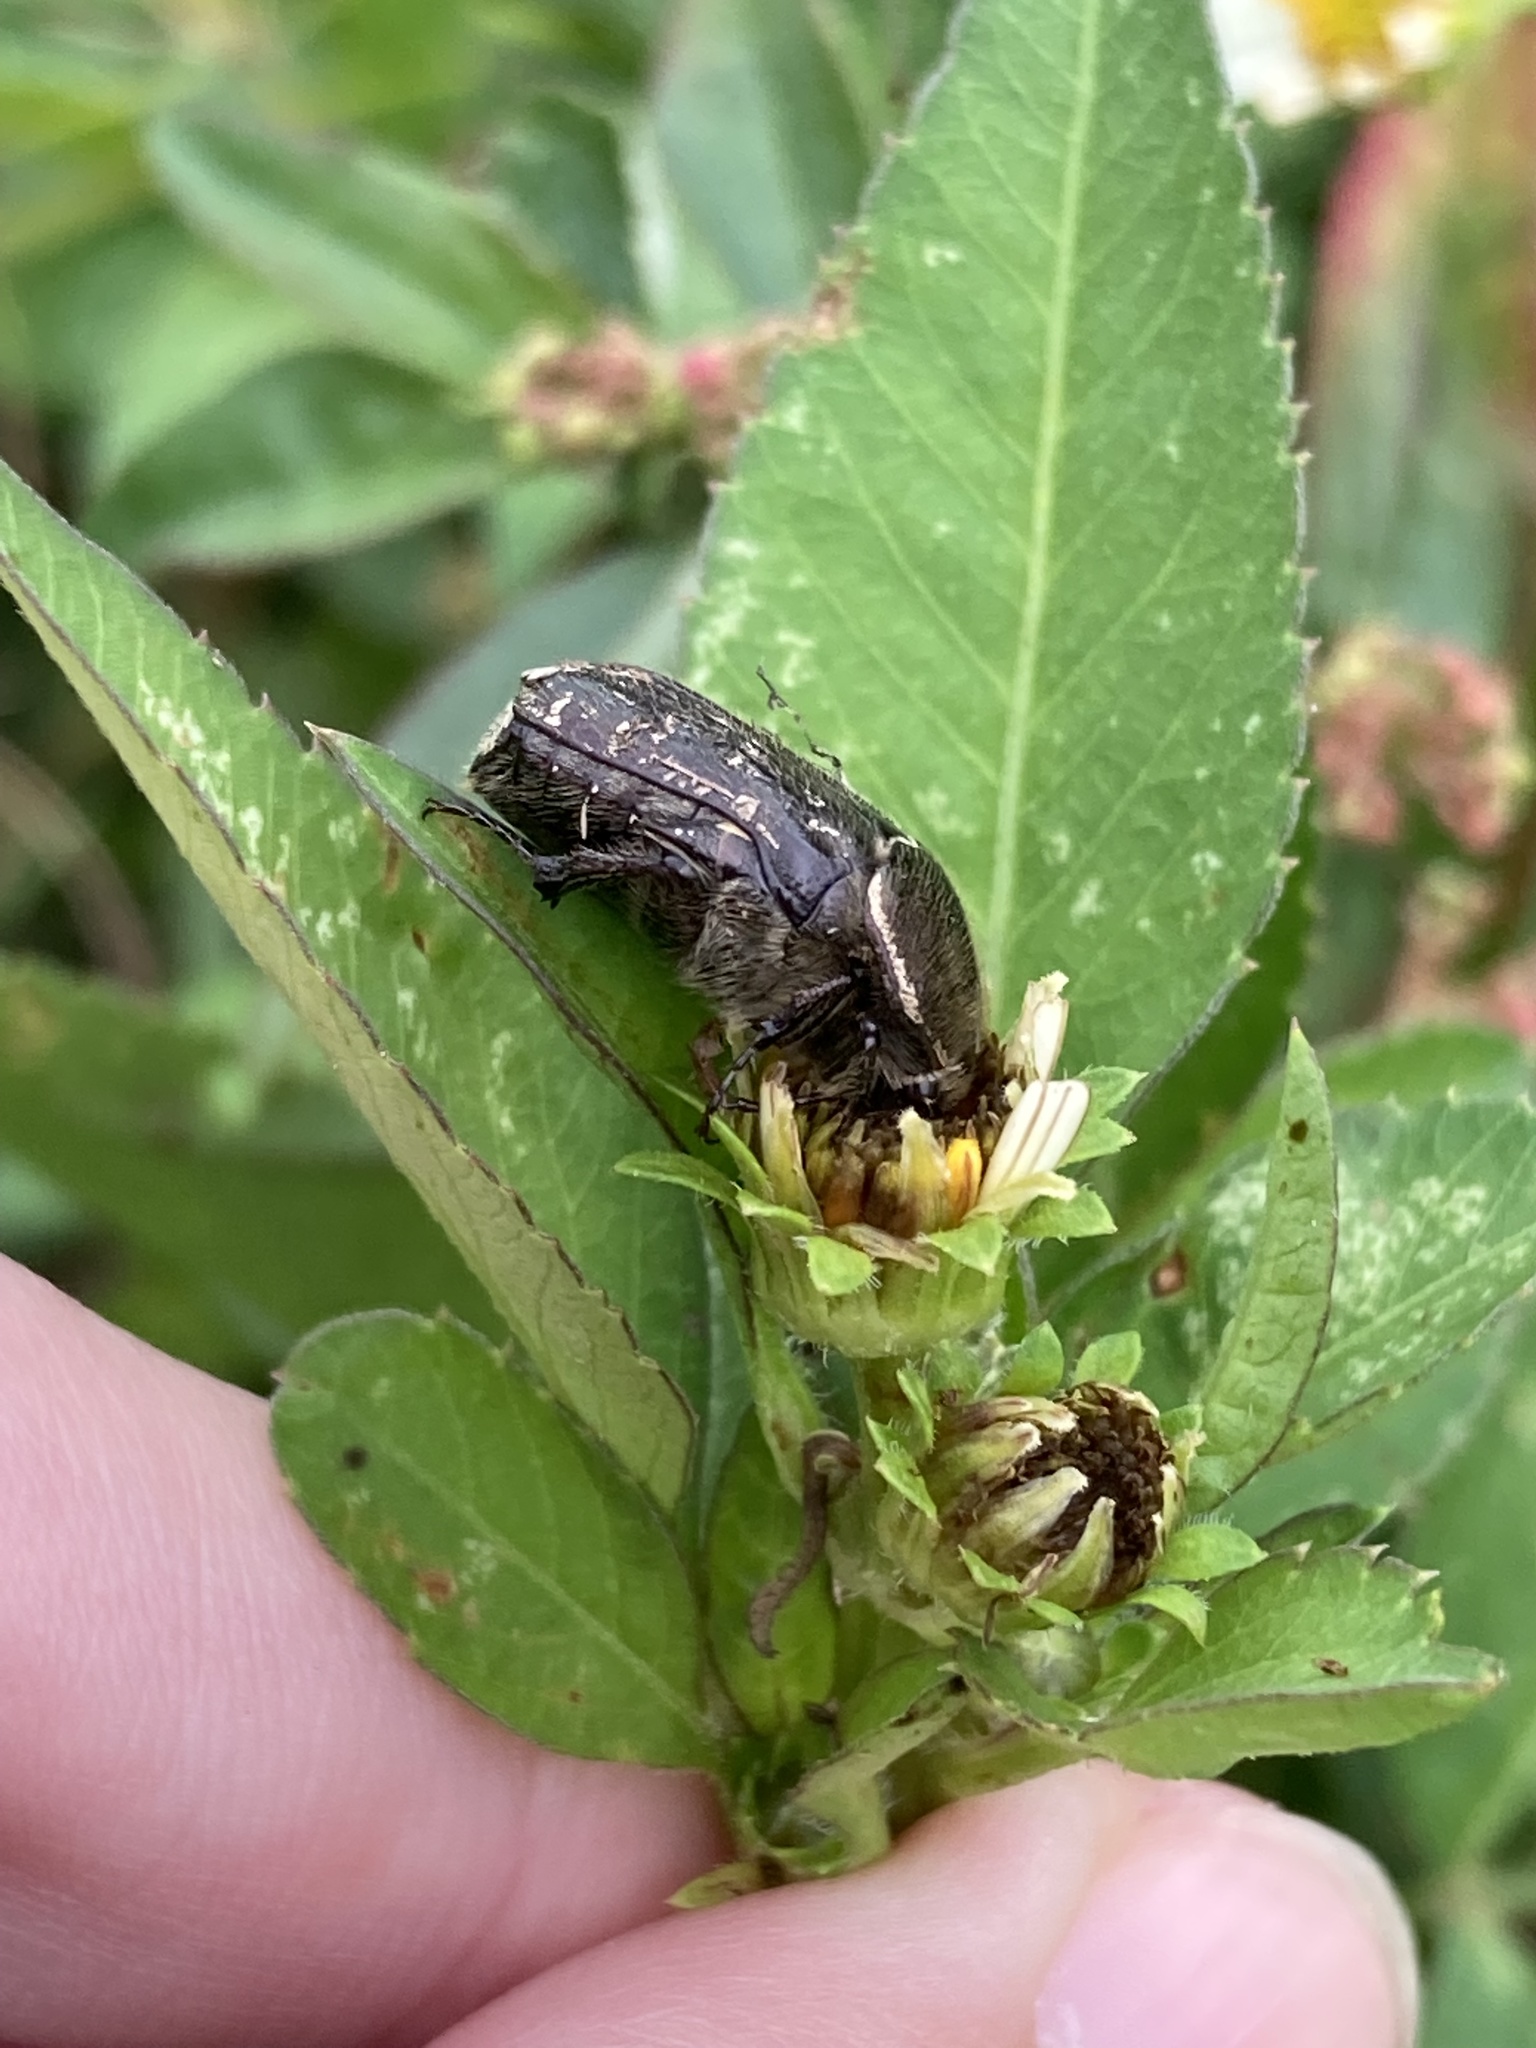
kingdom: Animalia
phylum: Arthropoda
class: Insecta
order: Coleoptera
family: Scarabaeidae
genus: Euphoria
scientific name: Euphoria sepulcralis
